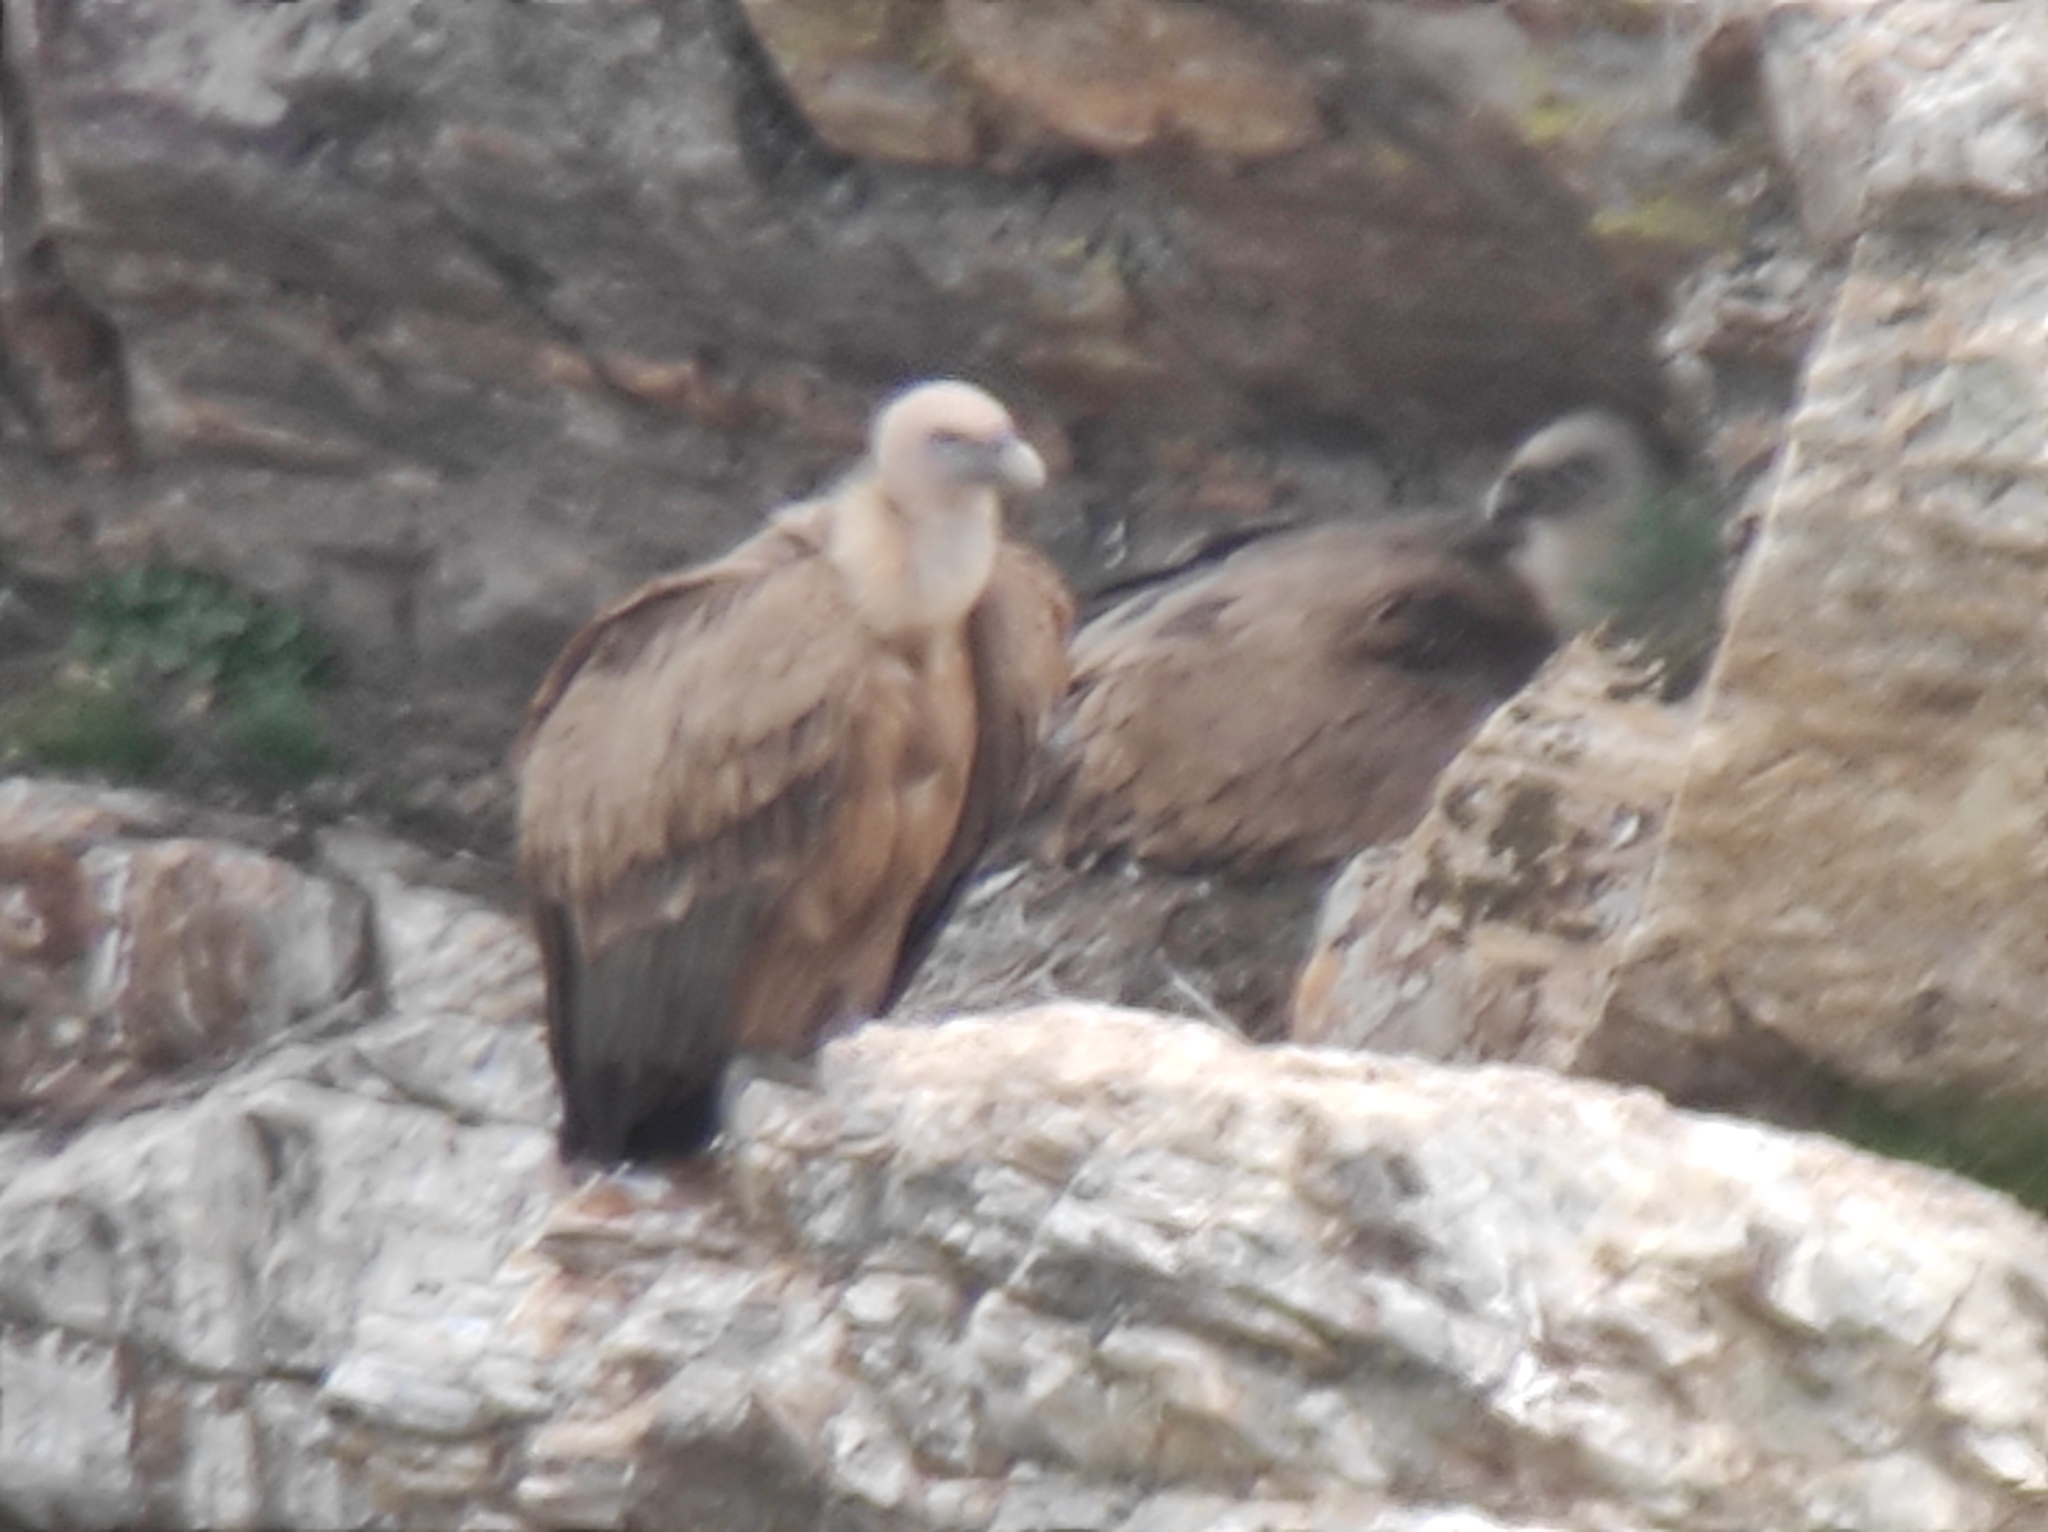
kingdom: Animalia
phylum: Chordata
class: Aves
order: Accipitriformes
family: Accipitridae
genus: Gyps
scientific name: Gyps fulvus
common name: Griffon vulture
